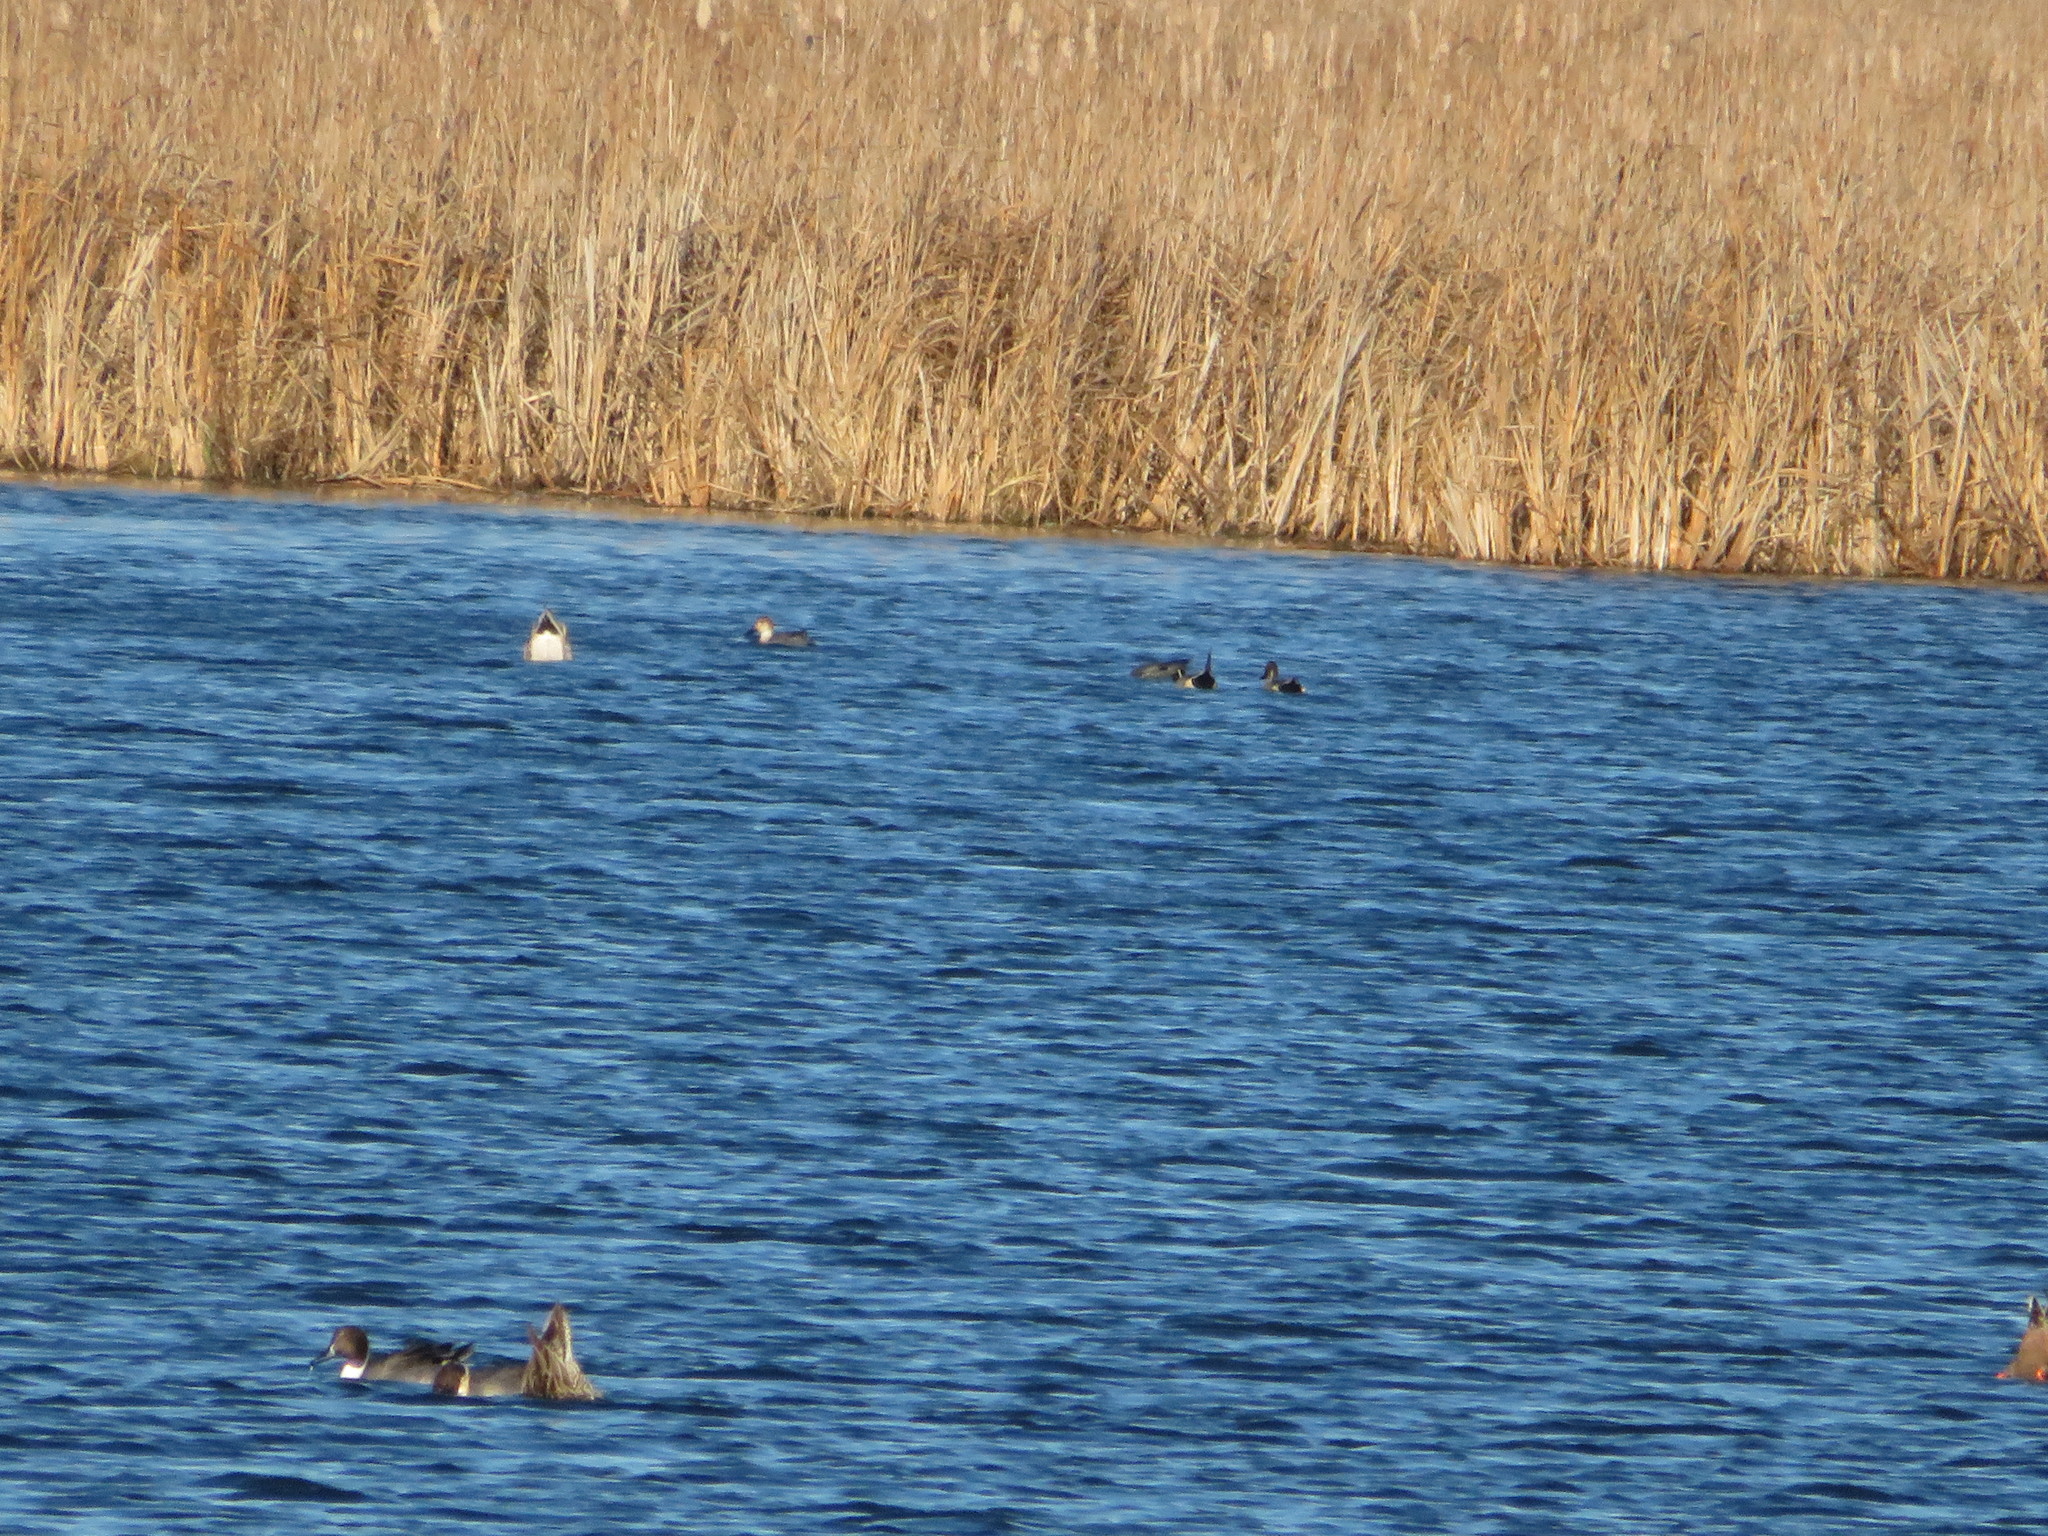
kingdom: Animalia
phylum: Chordata
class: Aves
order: Anseriformes
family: Anatidae
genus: Anas
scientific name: Anas acuta
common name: Northern pintail
